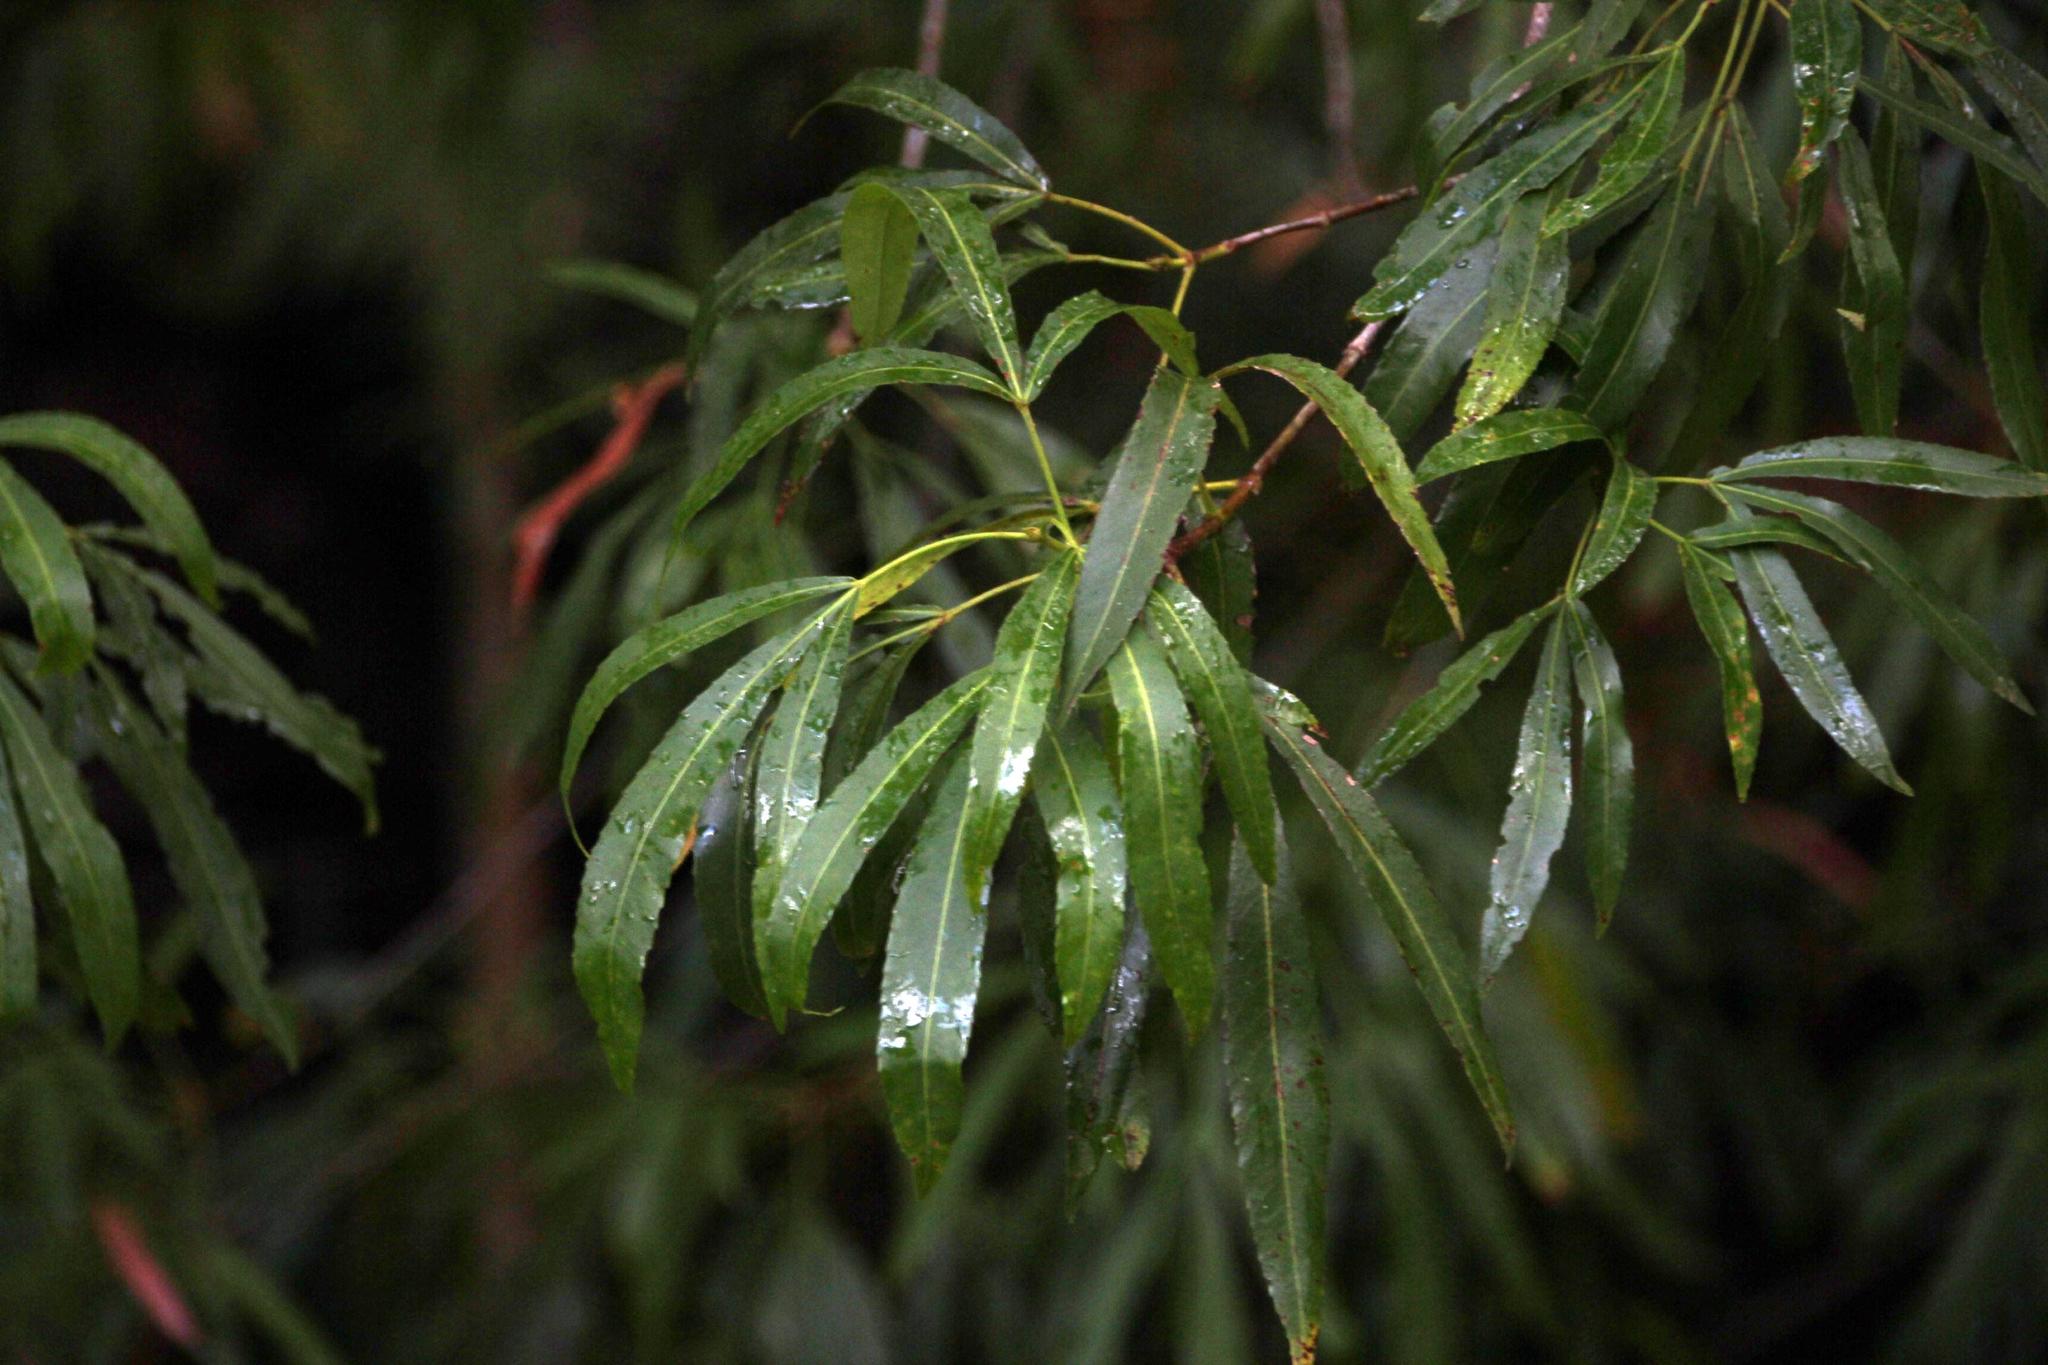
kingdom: Plantae
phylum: Tracheophyta
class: Magnoliopsida
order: Oxalidales
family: Cunoniaceae
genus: Platylophus
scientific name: Platylophus trifoliatus
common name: White alder
